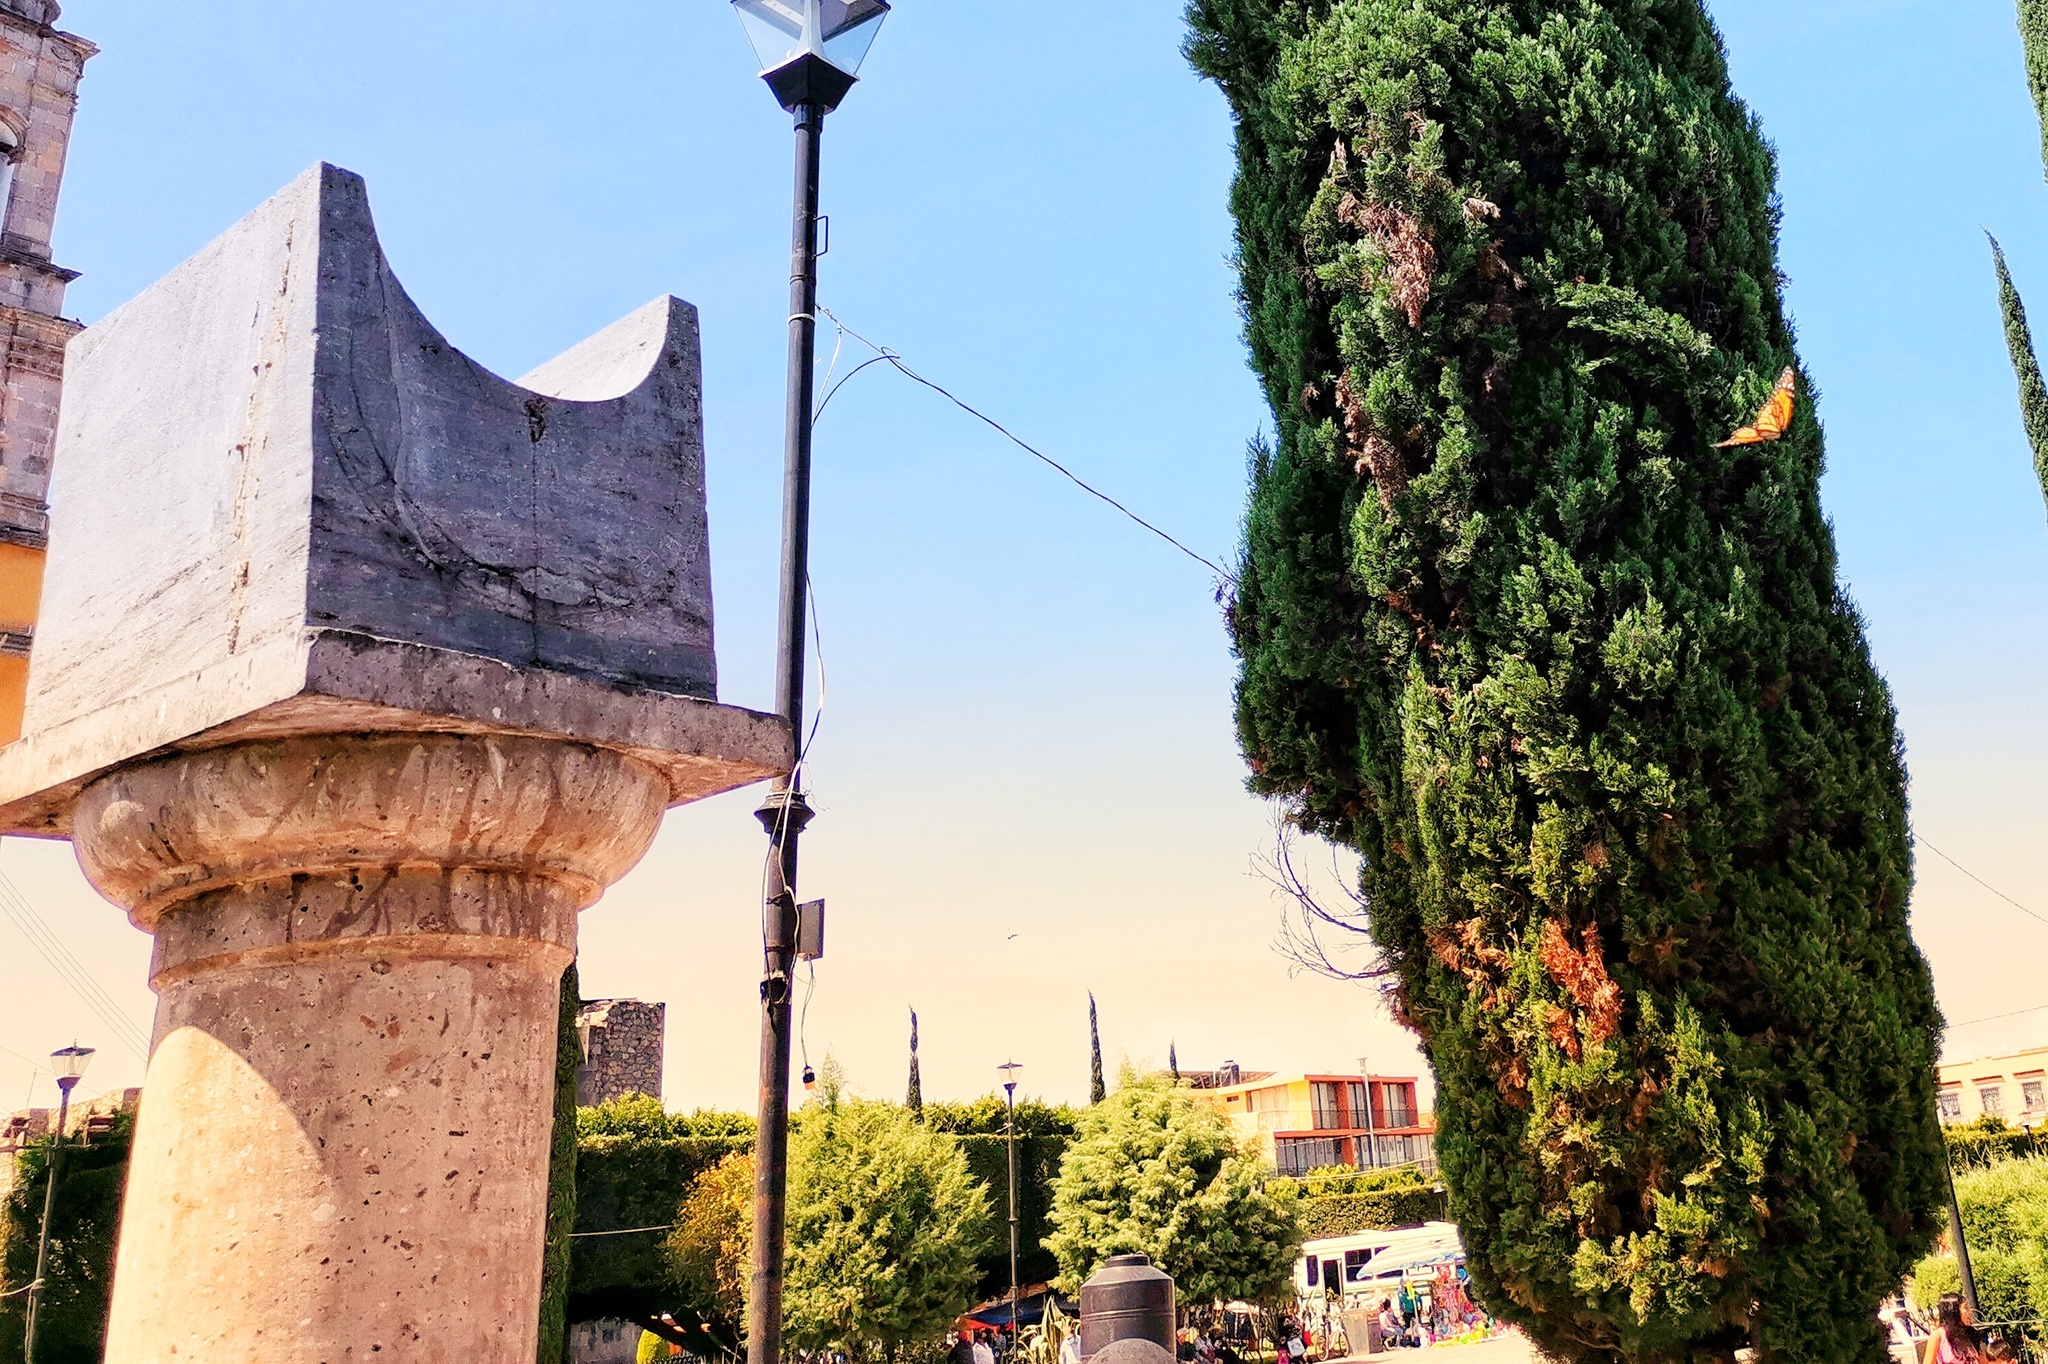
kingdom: Animalia
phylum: Arthropoda
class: Insecta
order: Lepidoptera
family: Nymphalidae
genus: Danaus
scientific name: Danaus plexippus
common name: Monarch
